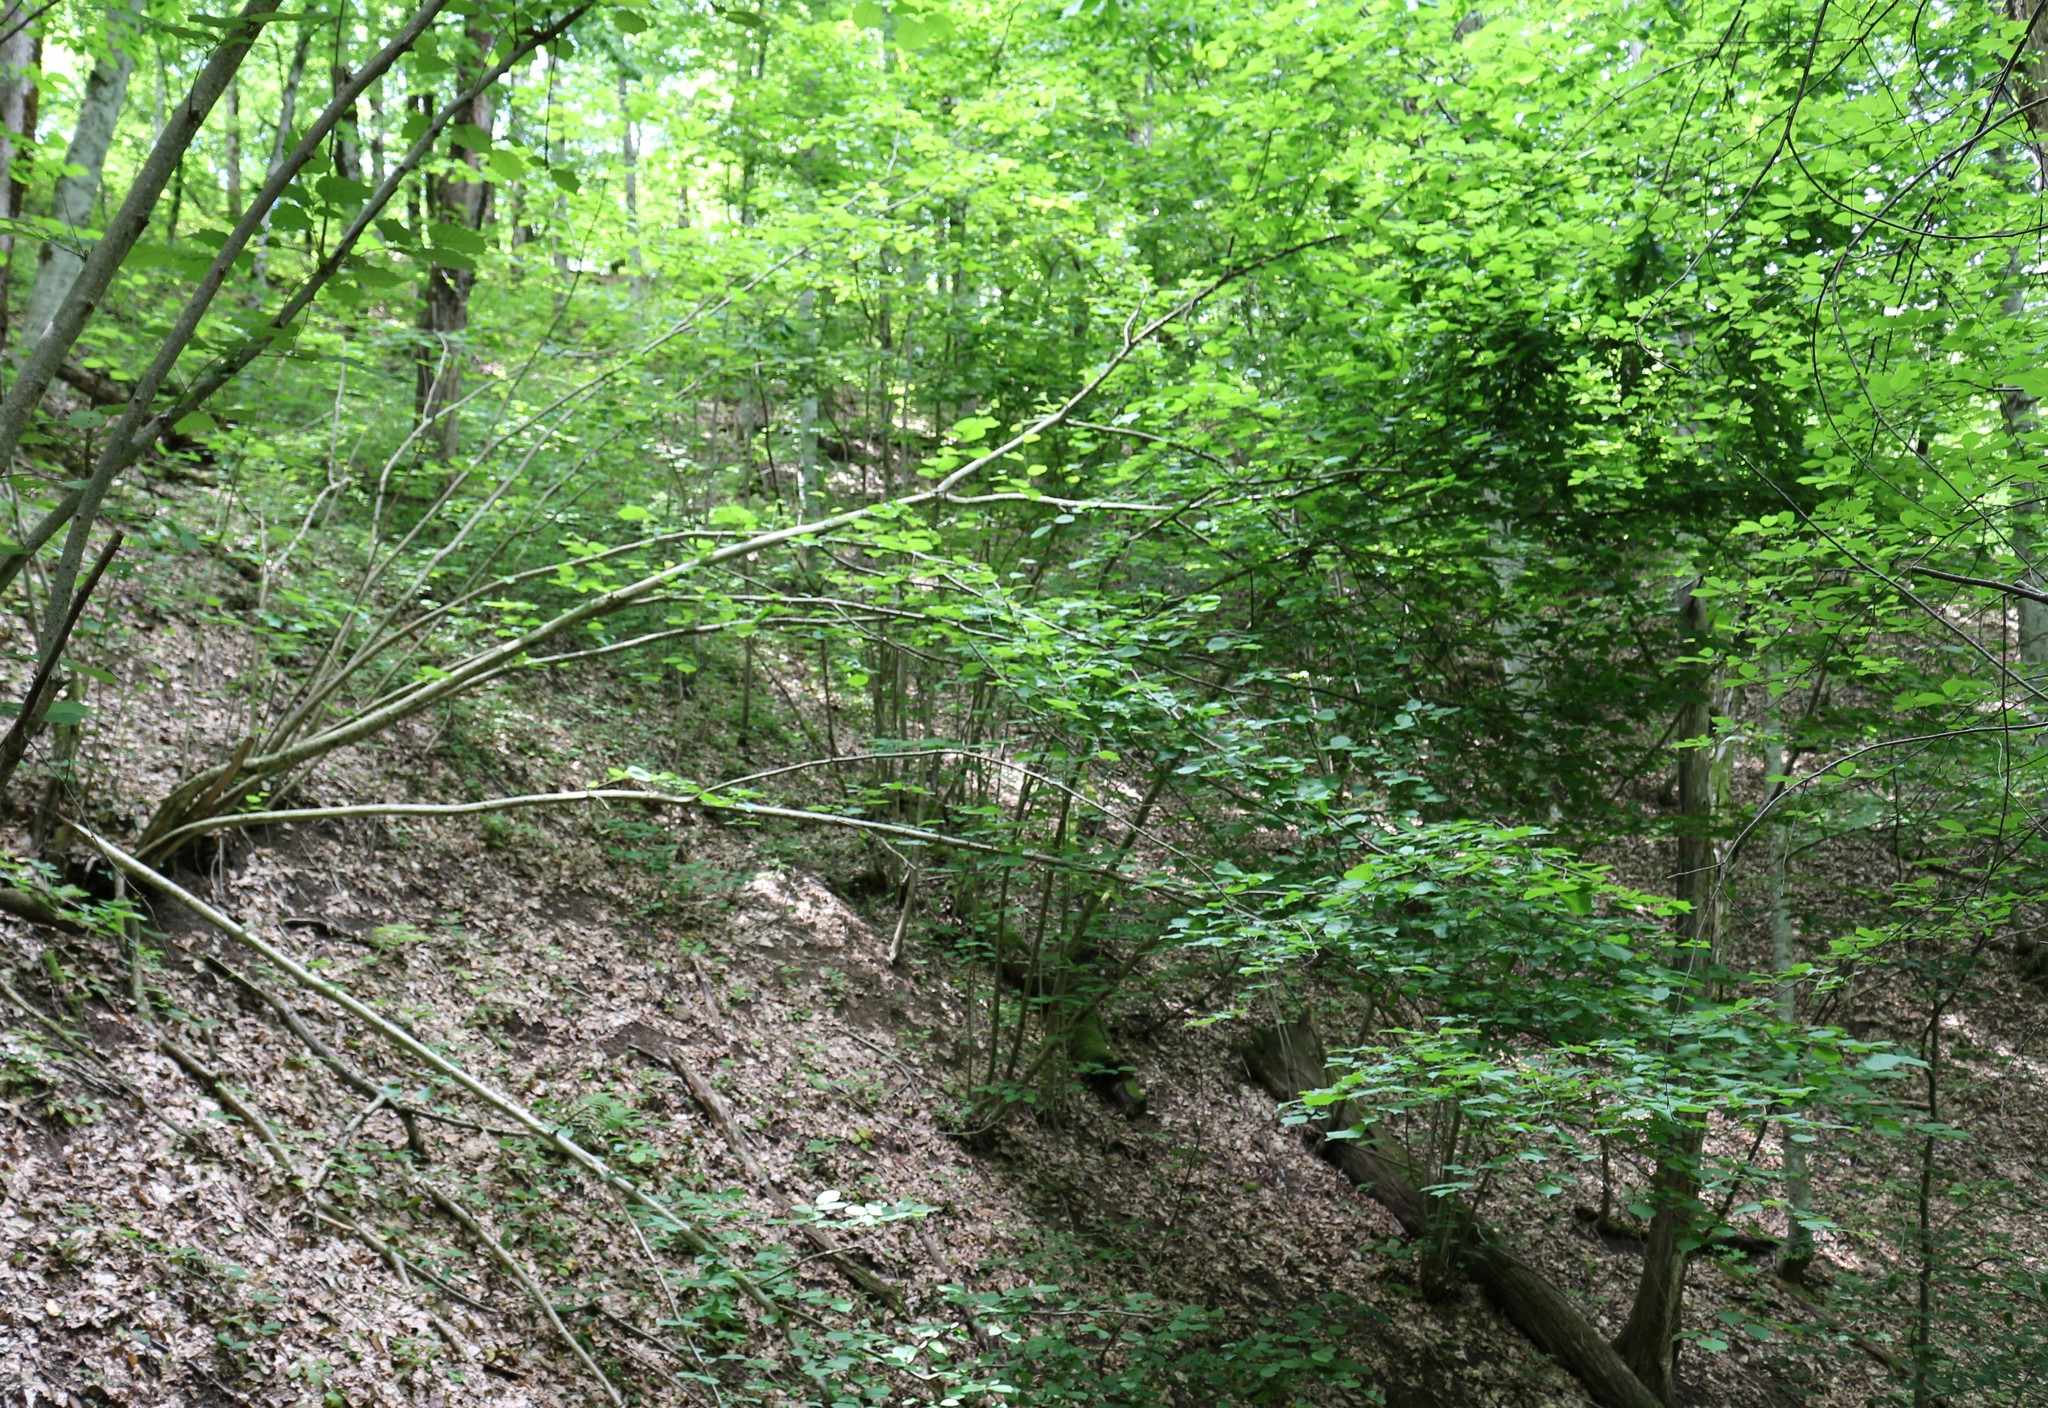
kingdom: Plantae
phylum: Tracheophyta
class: Magnoliopsida
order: Fagales
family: Betulaceae
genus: Corylus
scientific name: Corylus avellana
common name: European hazel
